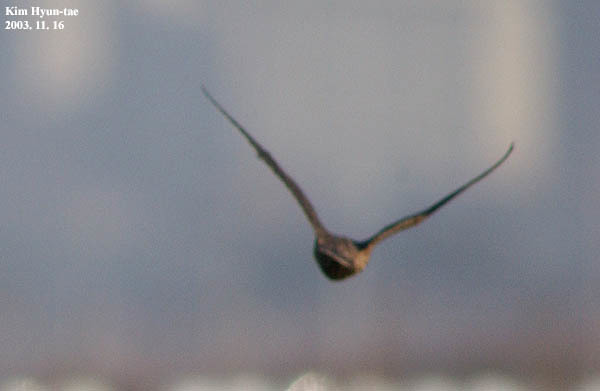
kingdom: Animalia
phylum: Chordata
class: Aves
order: Falconiformes
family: Falconidae
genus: Falco
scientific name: Falco peregrinus
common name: Peregrine falcon
